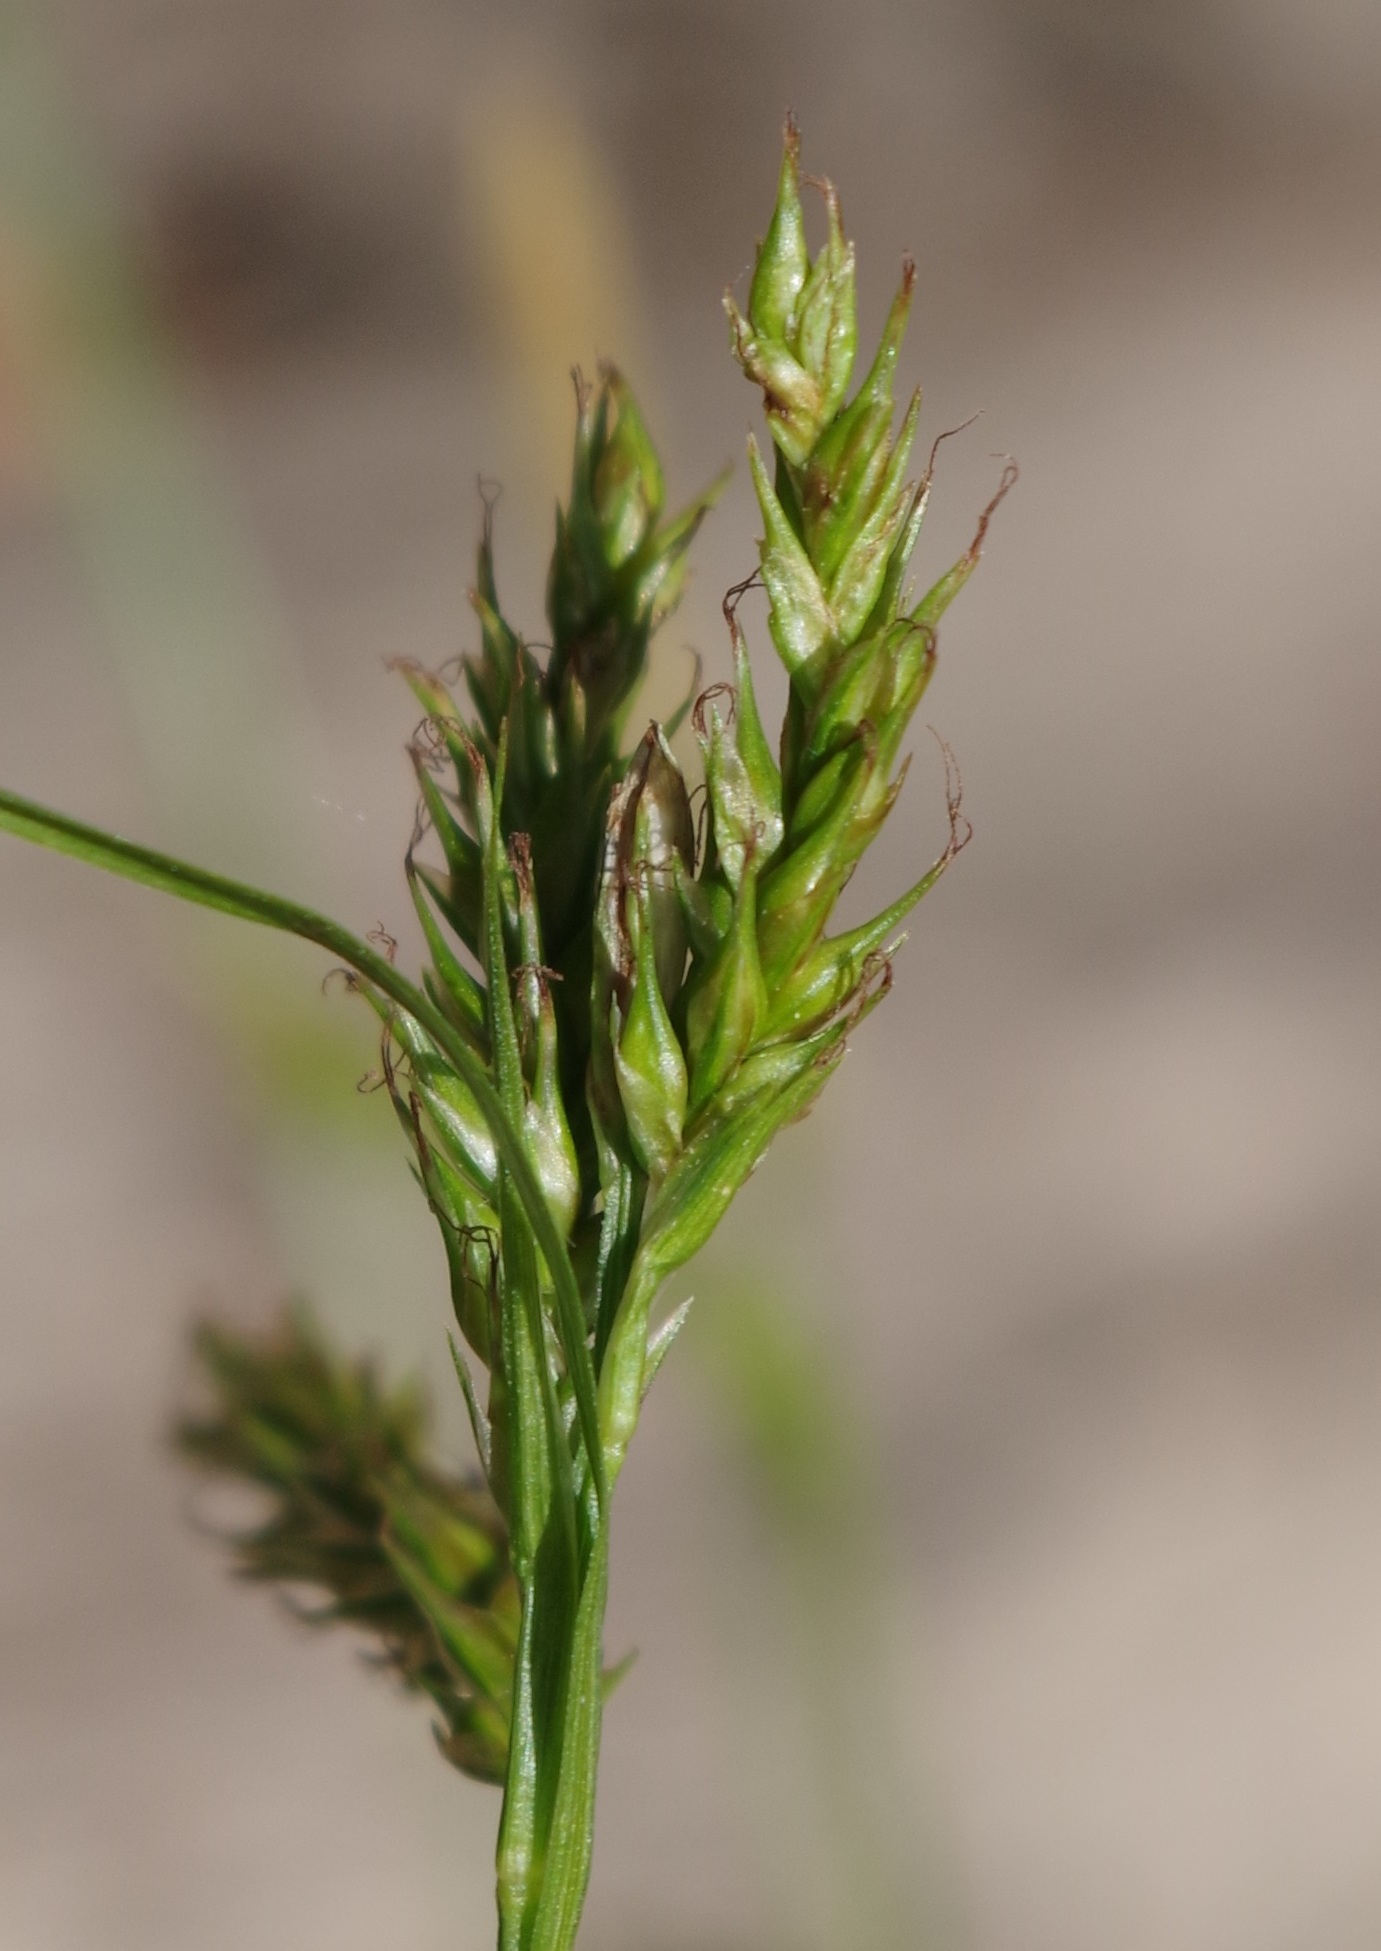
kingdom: Plantae
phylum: Tracheophyta
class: Liliopsida
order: Poales
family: Cyperaceae
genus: Carex
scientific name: Carex sylvatica
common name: Wood-sedge
